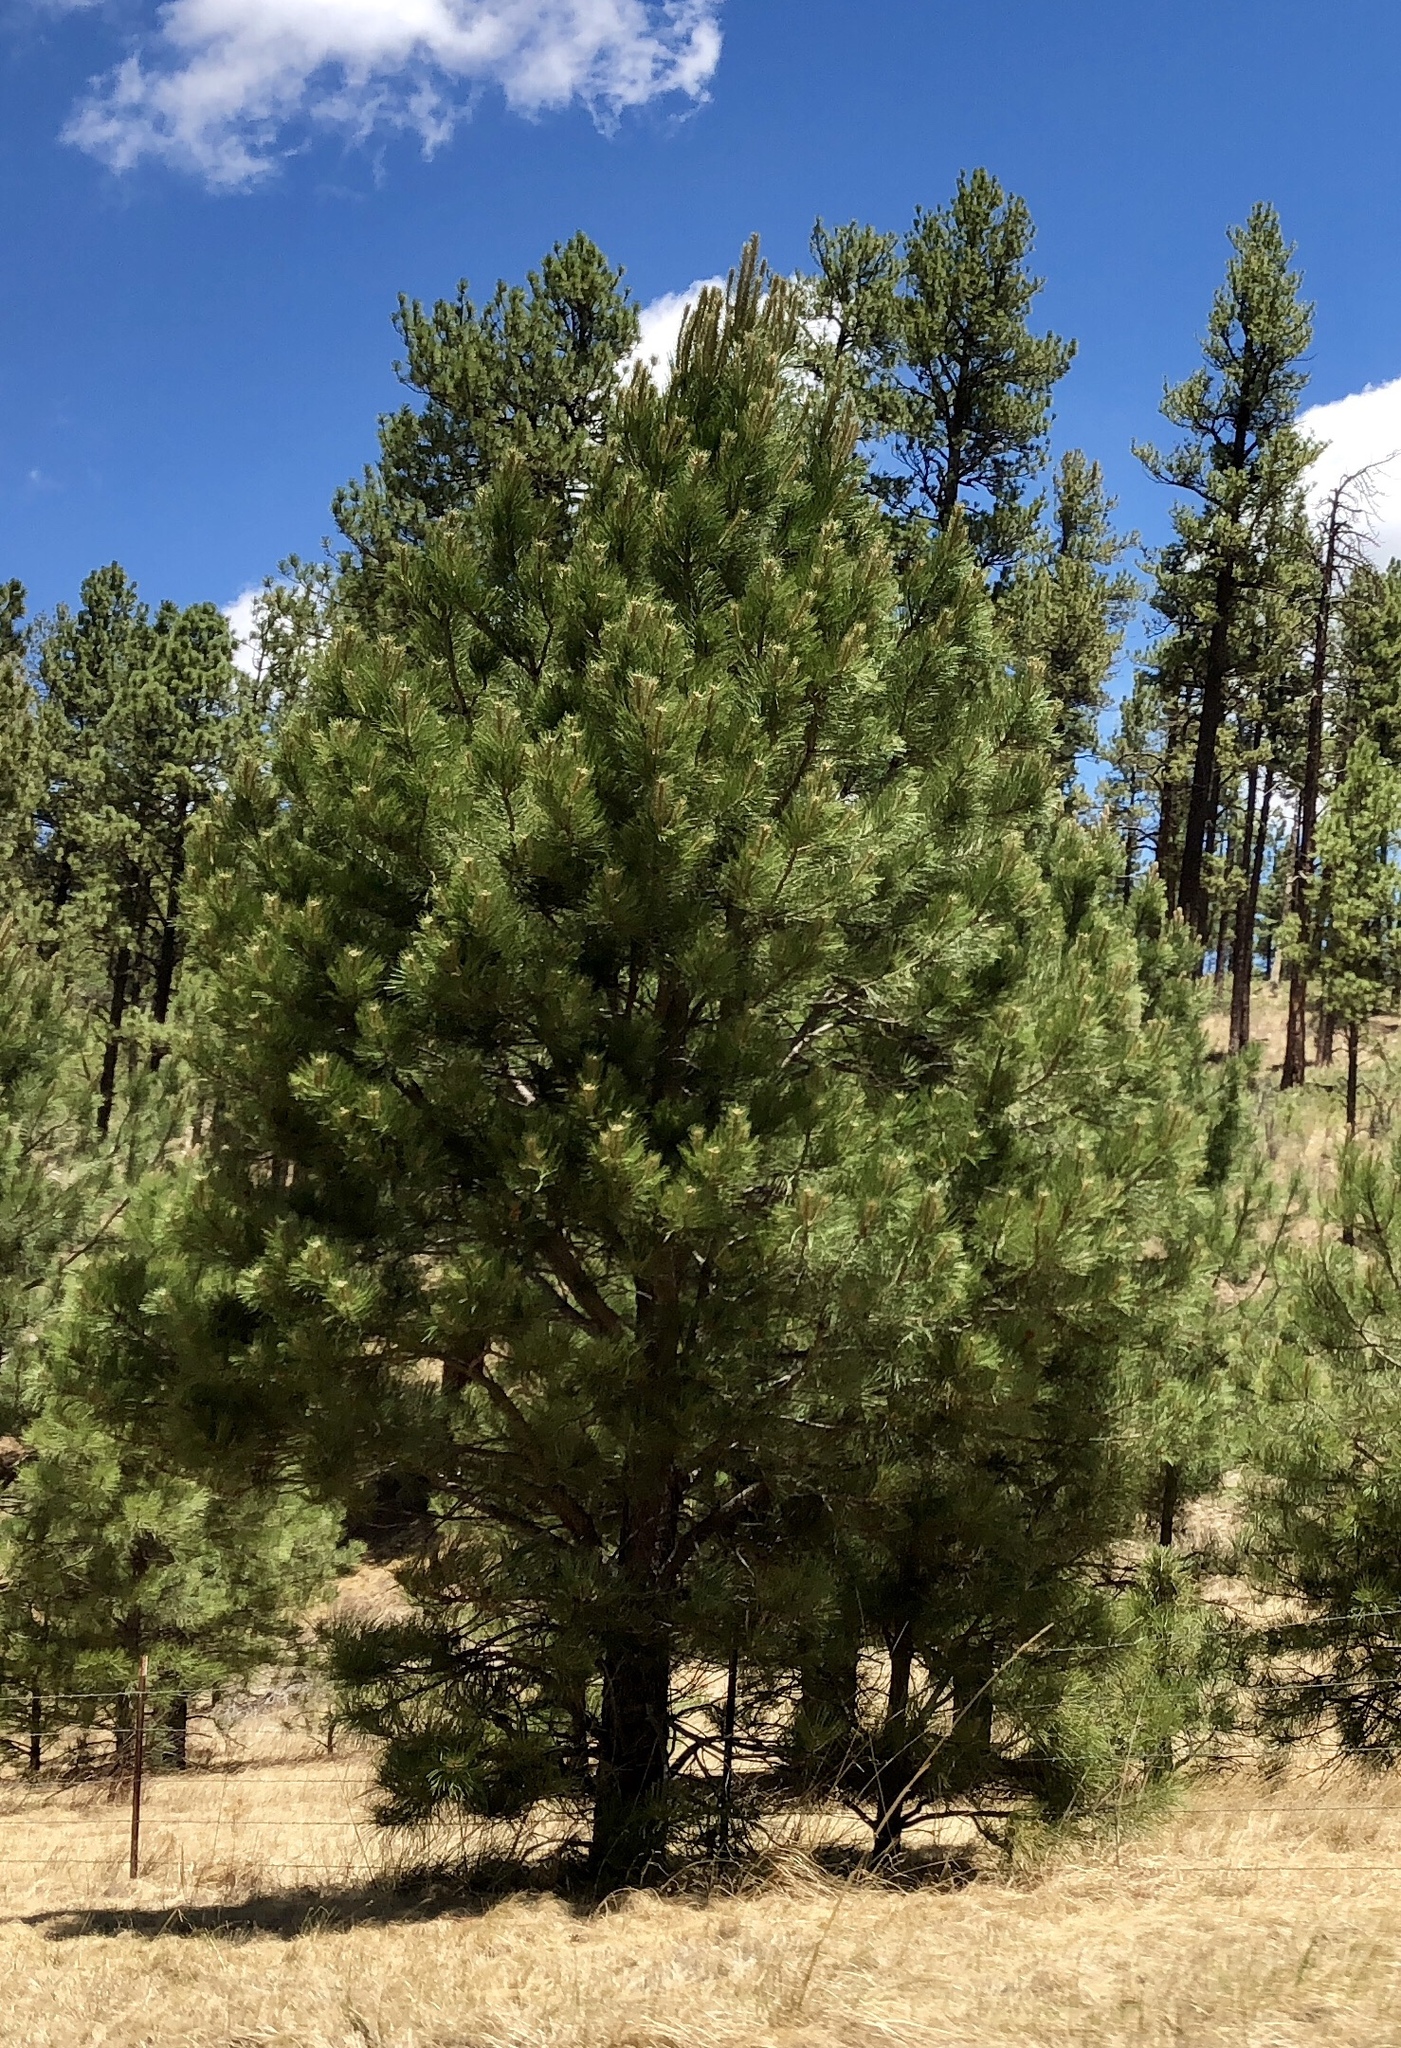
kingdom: Plantae
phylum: Tracheophyta
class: Pinopsida
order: Pinales
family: Pinaceae
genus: Pinus
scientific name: Pinus ponderosa
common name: Western yellow-pine
